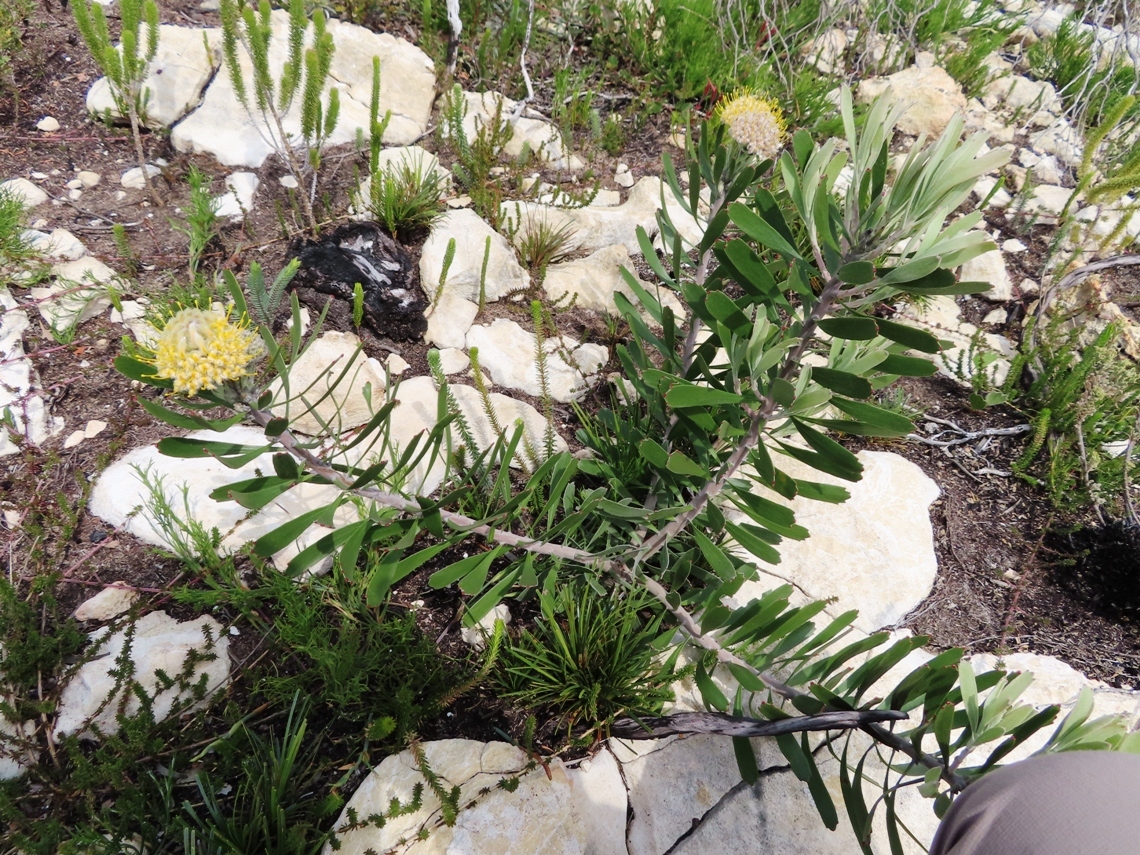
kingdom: Plantae
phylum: Tracheophyta
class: Magnoliopsida
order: Proteales
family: Proteaceae
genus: Leucospermum
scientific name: Leucospermum truncatum
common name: Limestone pincushion
